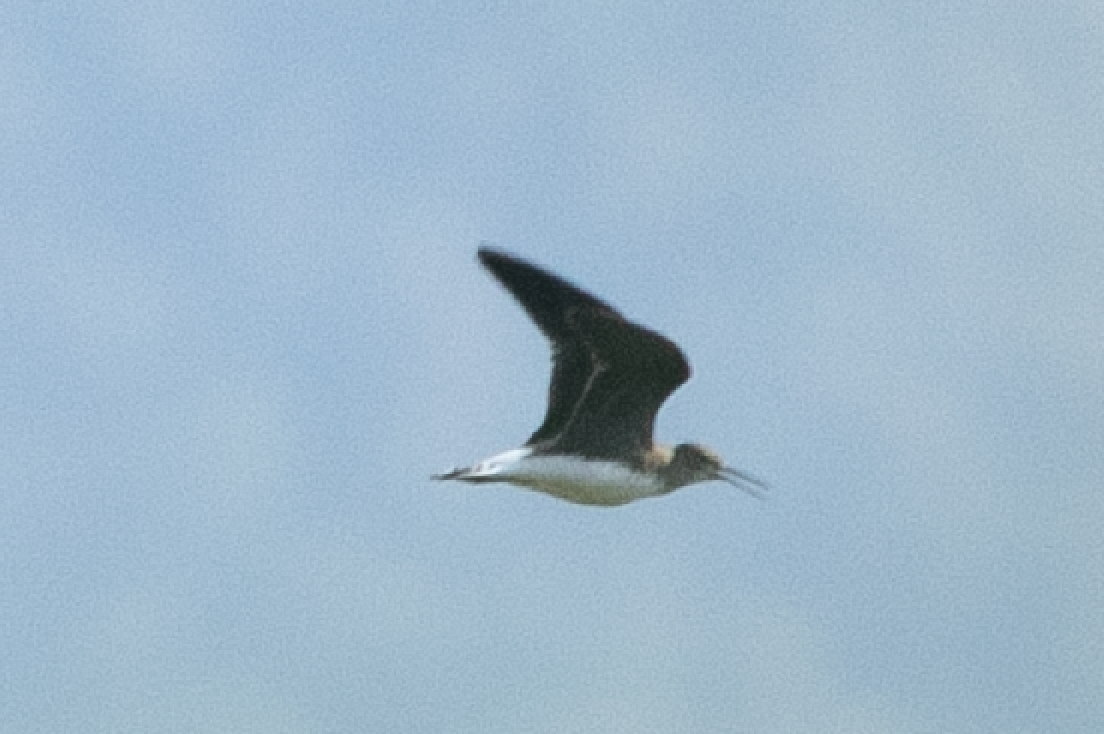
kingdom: Animalia
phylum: Chordata
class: Aves
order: Charadriiformes
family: Scolopacidae
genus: Tringa
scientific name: Tringa ochropus
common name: Green sandpiper
